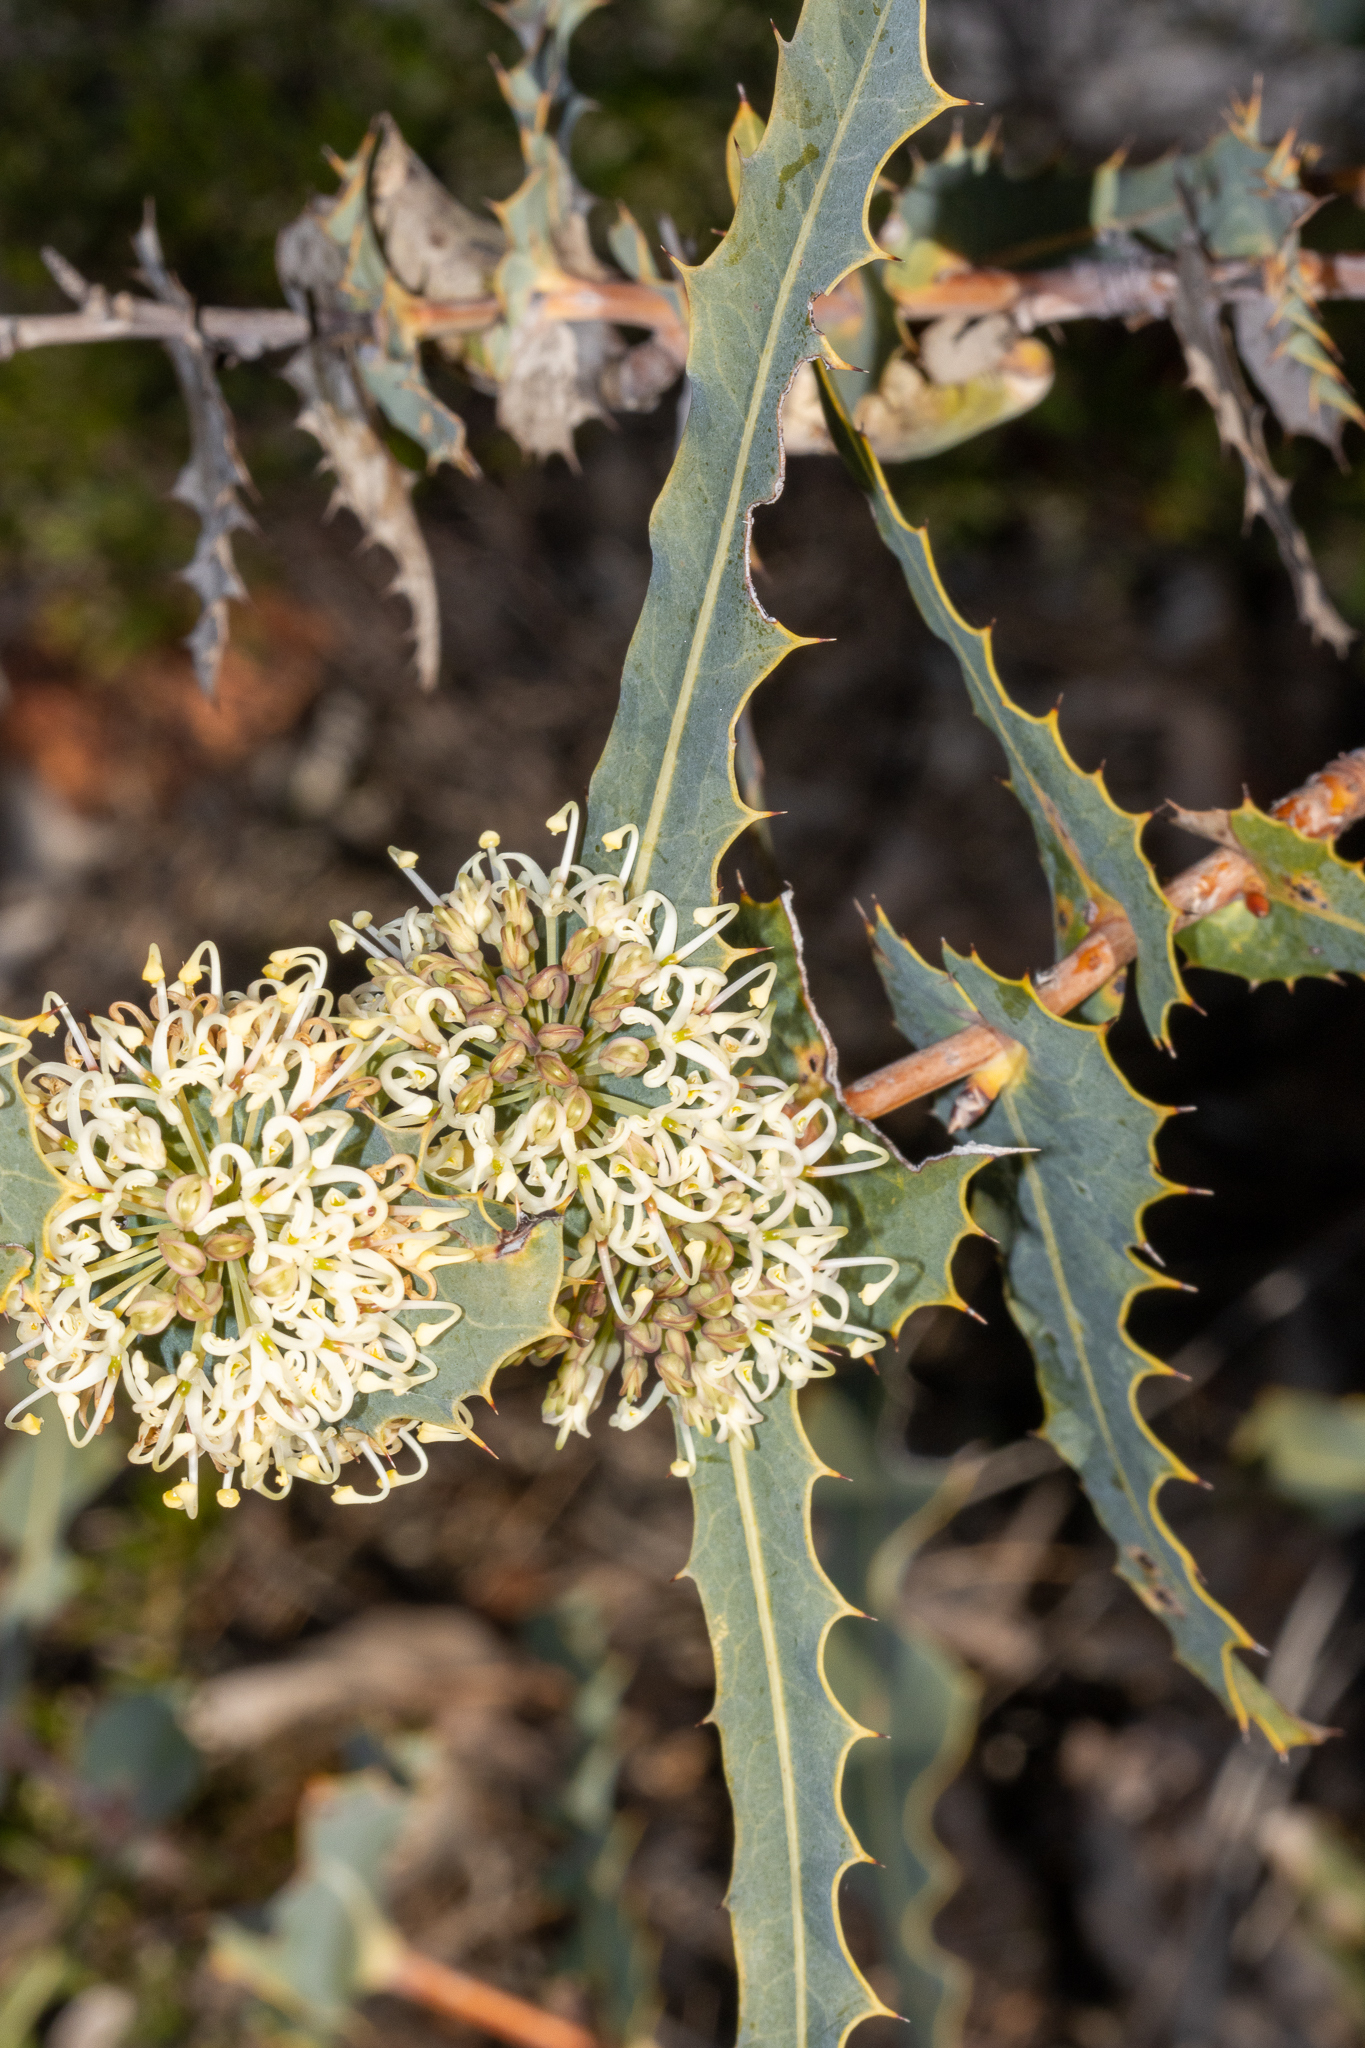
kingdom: Plantae
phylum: Tracheophyta
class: Magnoliopsida
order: Proteales
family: Proteaceae
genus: Hakea
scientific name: Hakea amplexicaulis
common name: Prickly hakea
